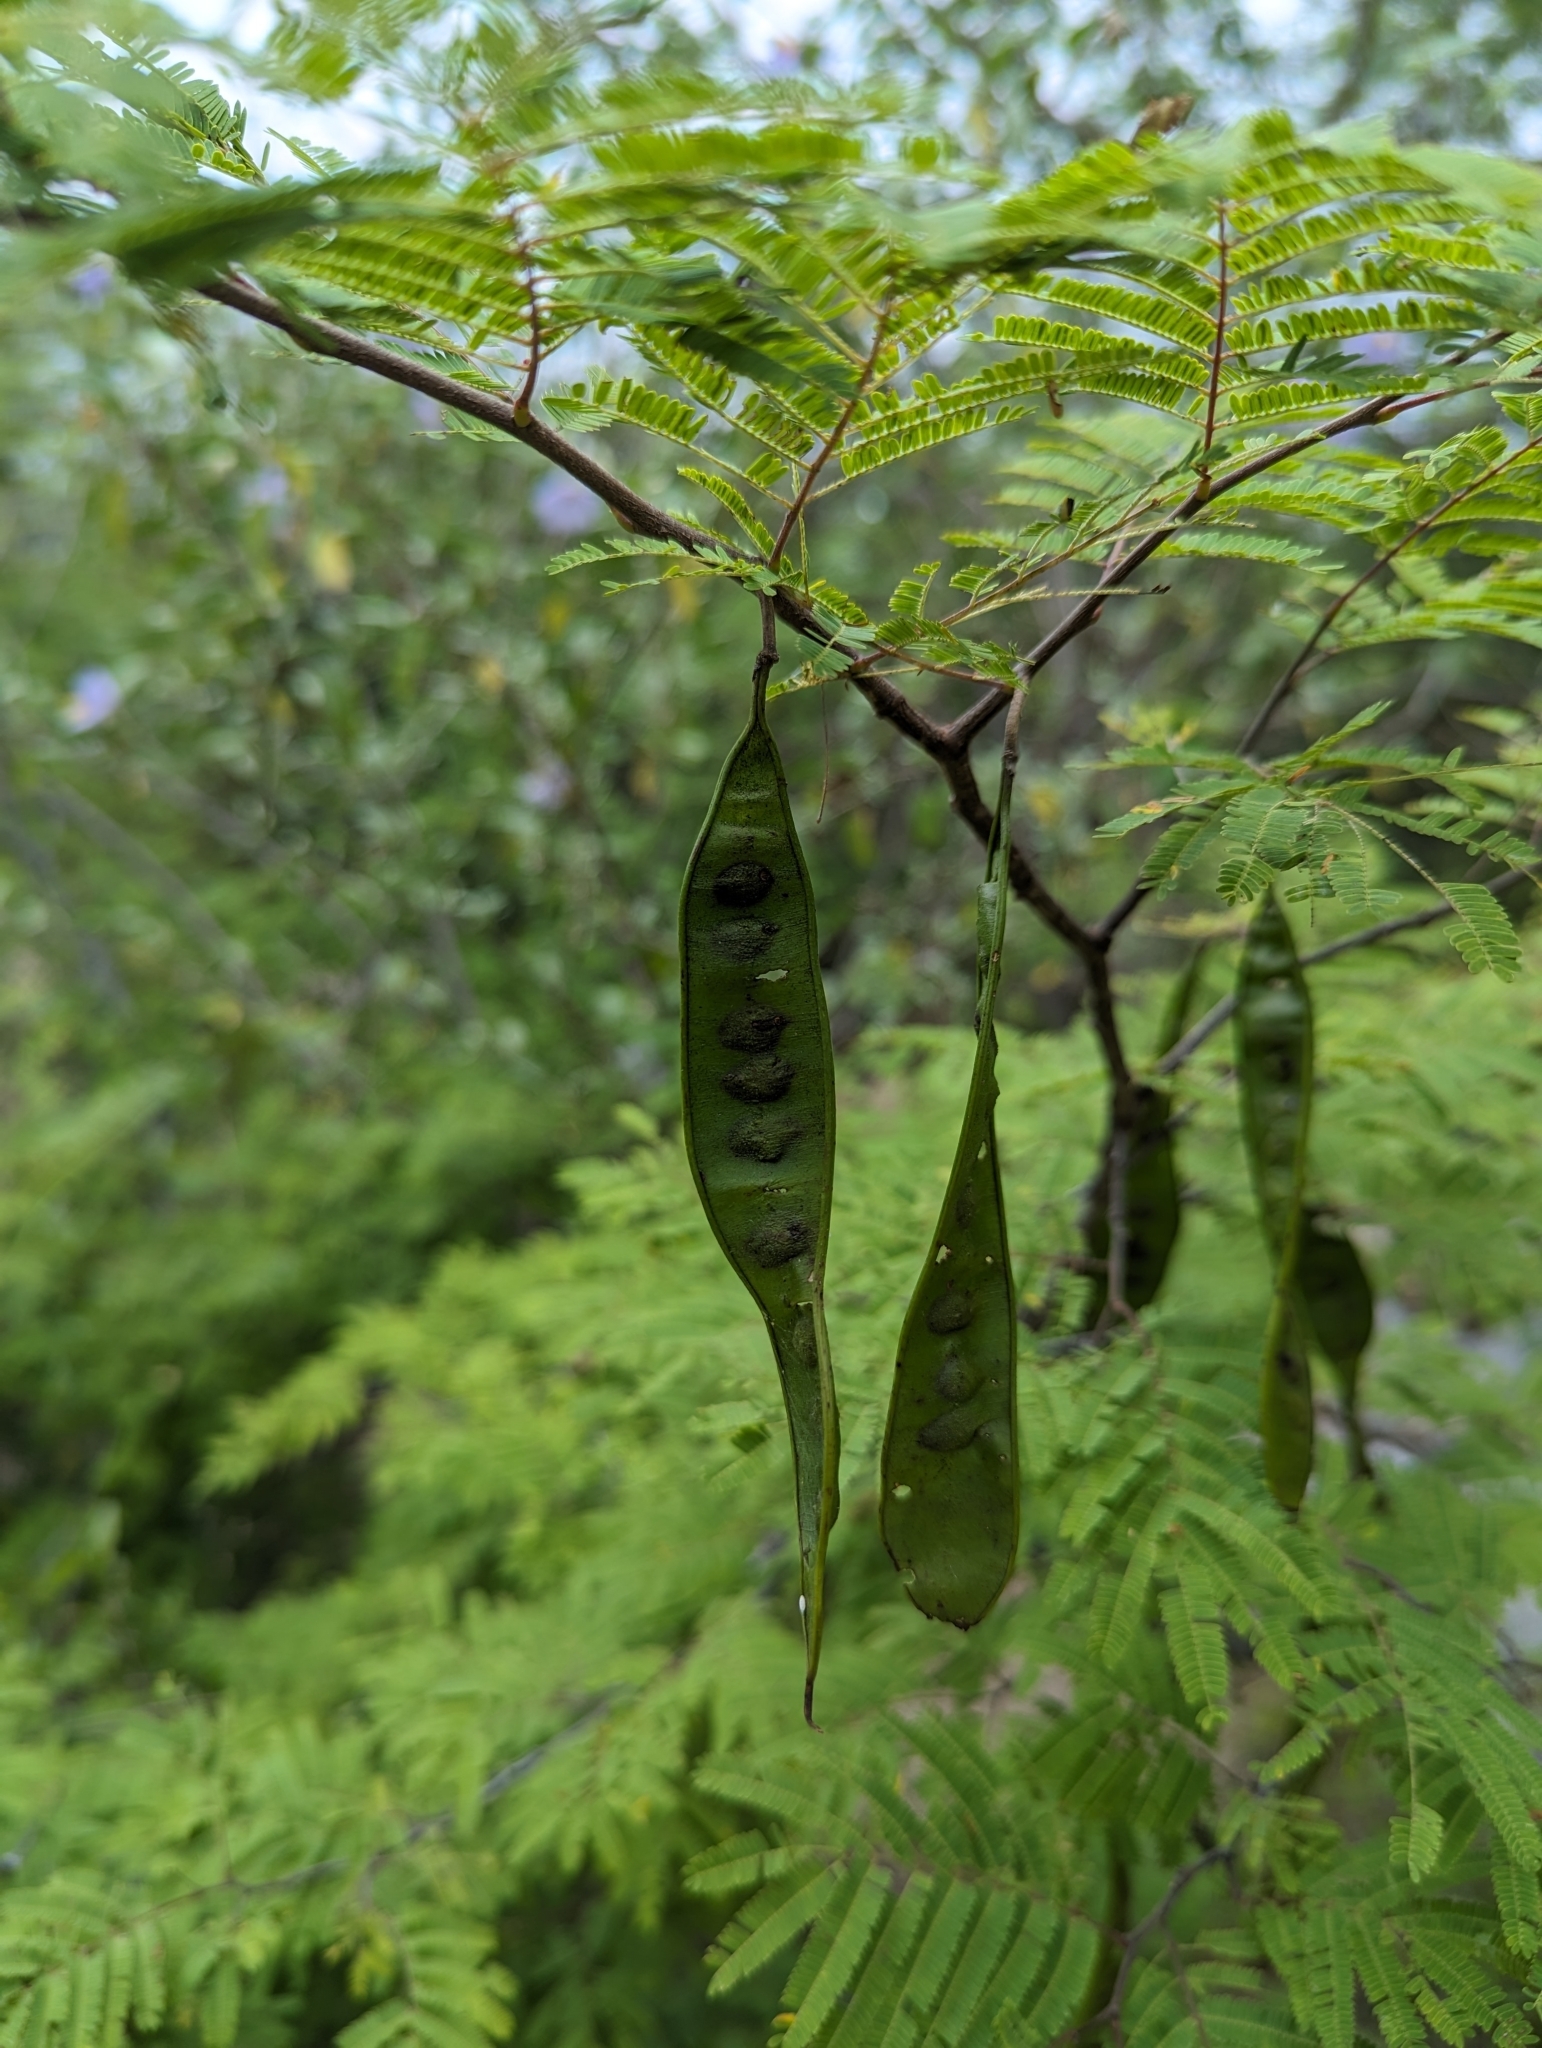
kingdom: Plantae
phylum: Tracheophyta
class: Magnoliopsida
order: Fabales
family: Fabaceae
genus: Lysiloma
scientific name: Lysiloma divaricatum
